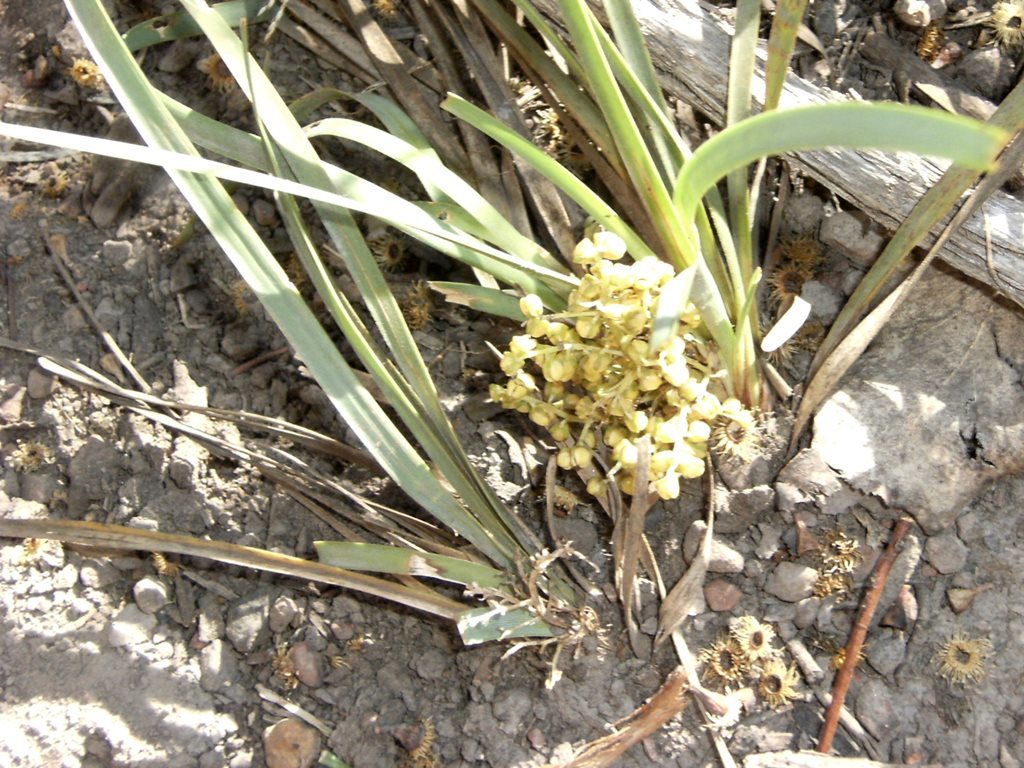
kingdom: Plantae
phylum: Tracheophyta
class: Liliopsida
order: Asparagales
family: Asparagaceae
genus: Lomandra
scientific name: Lomandra filiformis
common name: Wattle mat-rush
